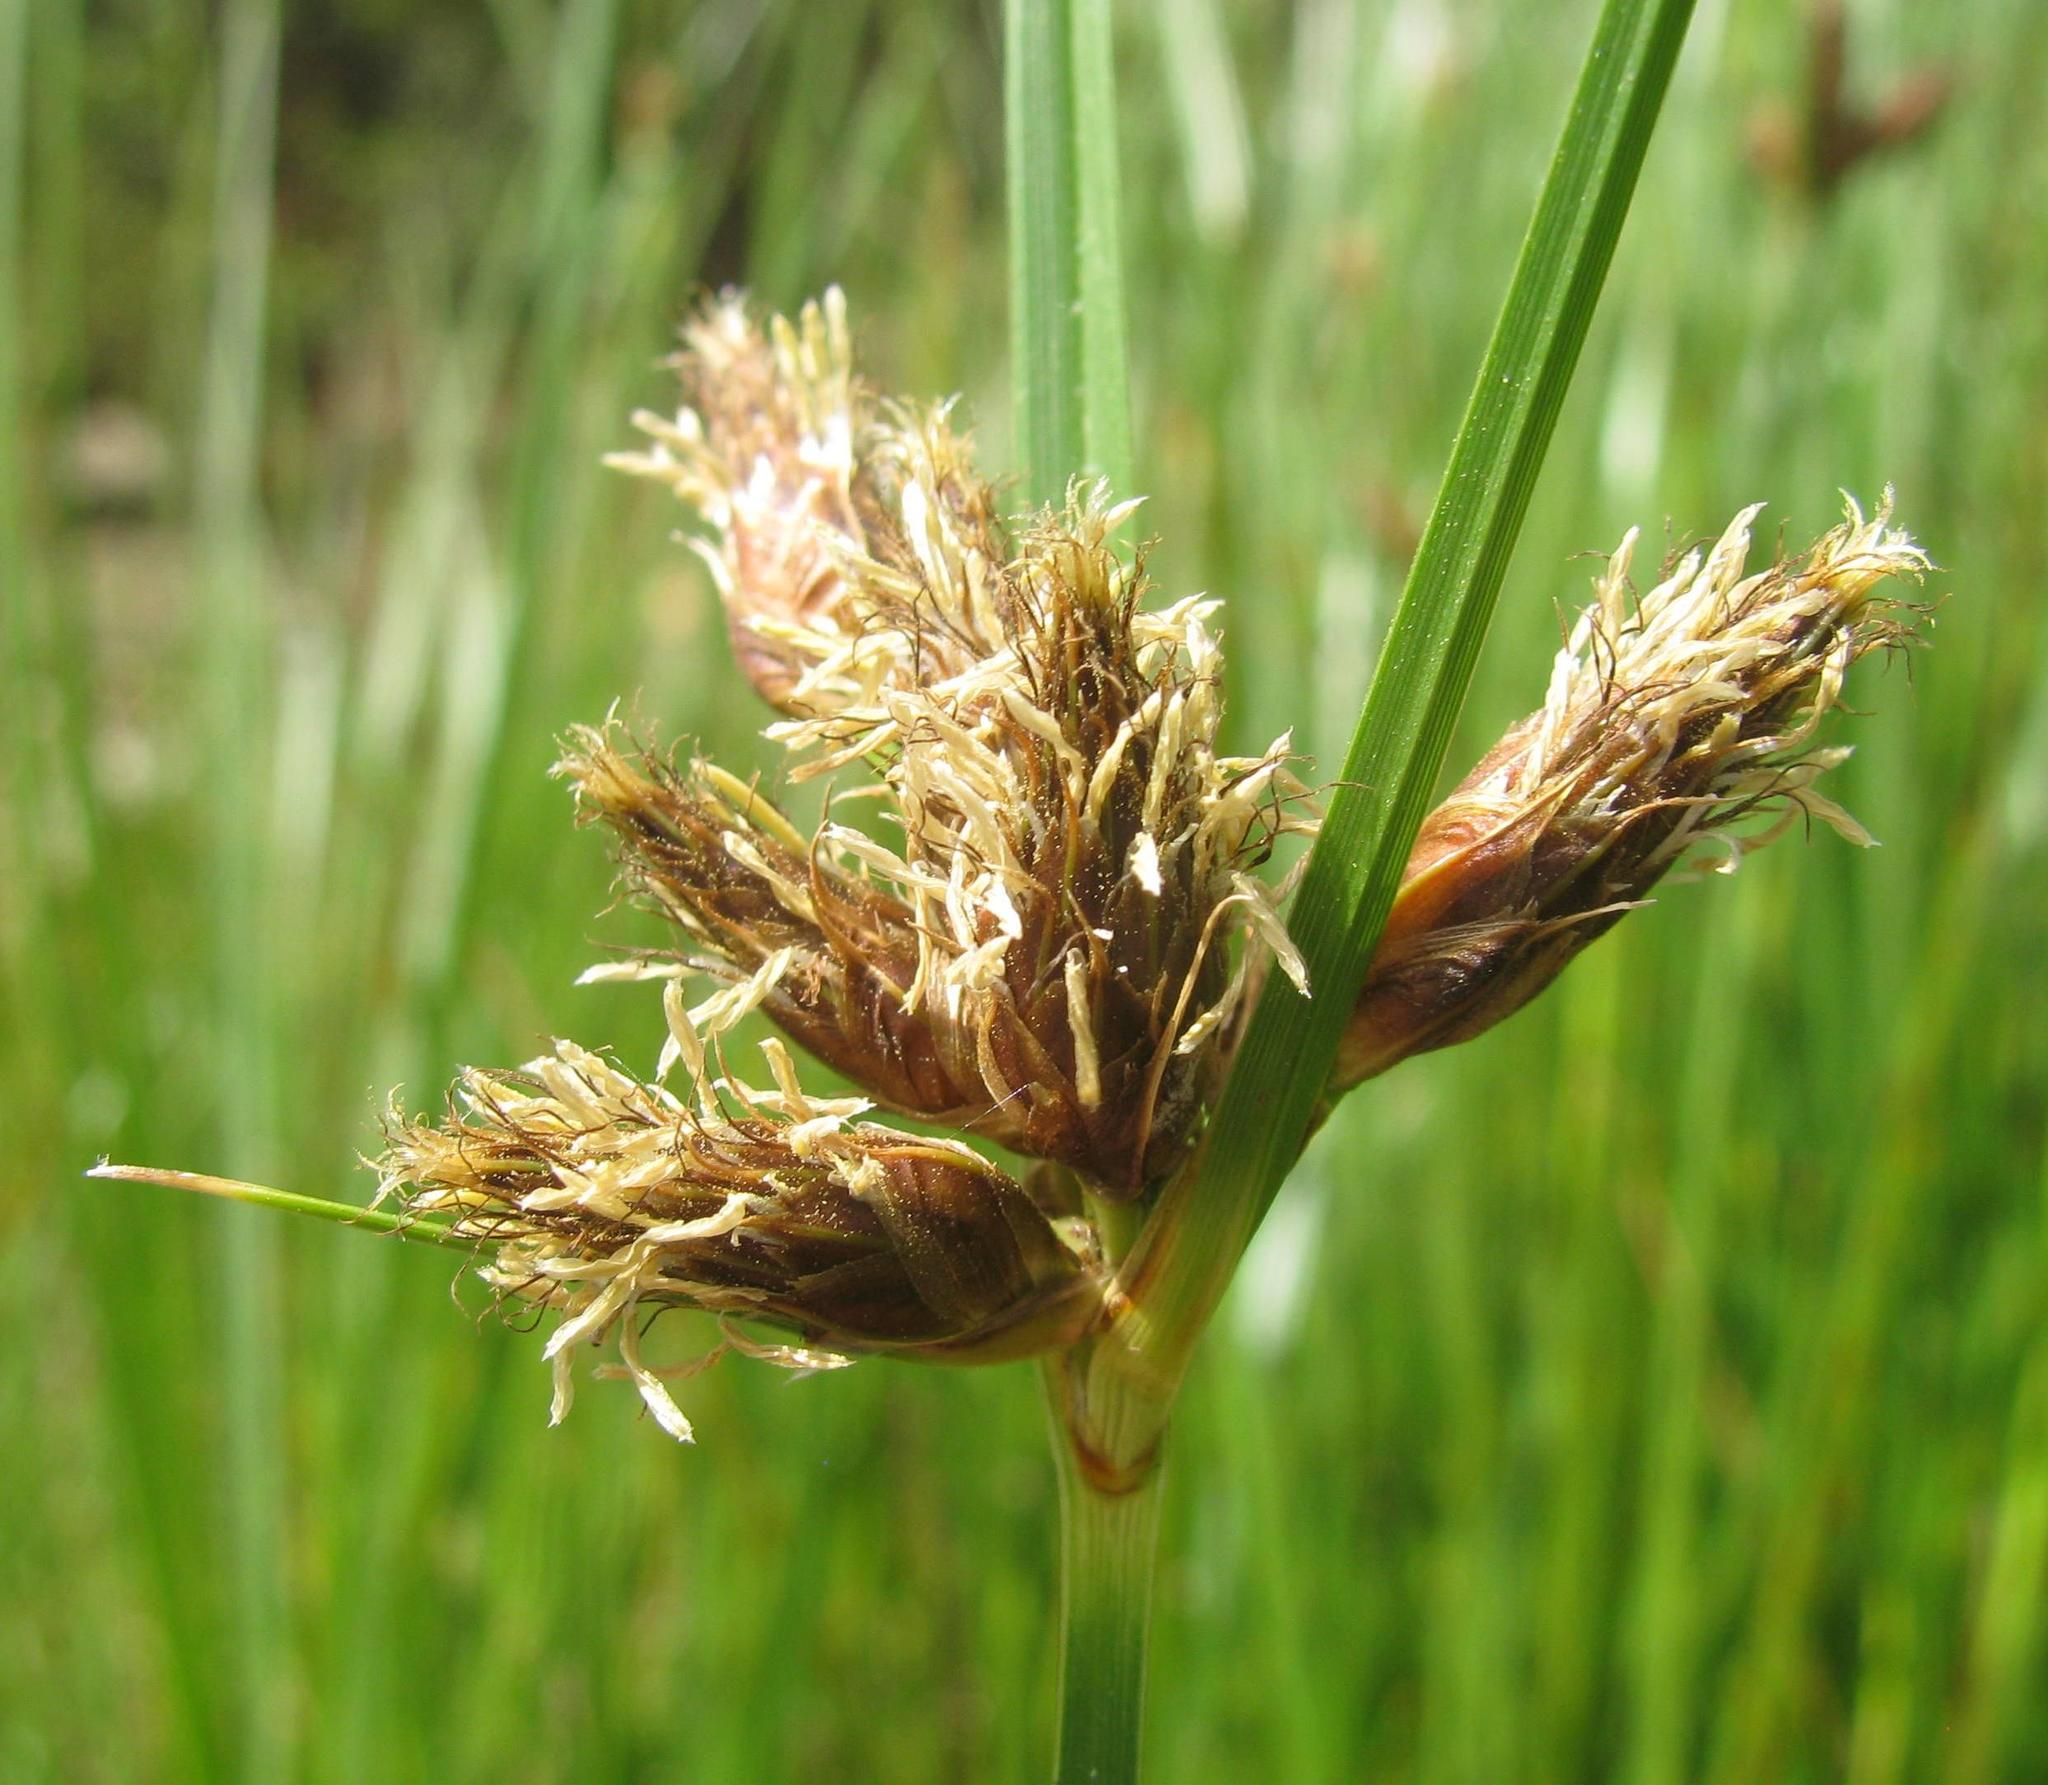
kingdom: Plantae
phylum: Tracheophyta
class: Liliopsida
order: Poales
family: Cyperaceae
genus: Bolboschoenus
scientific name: Bolboschoenus maritimus
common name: Sea club-rush
